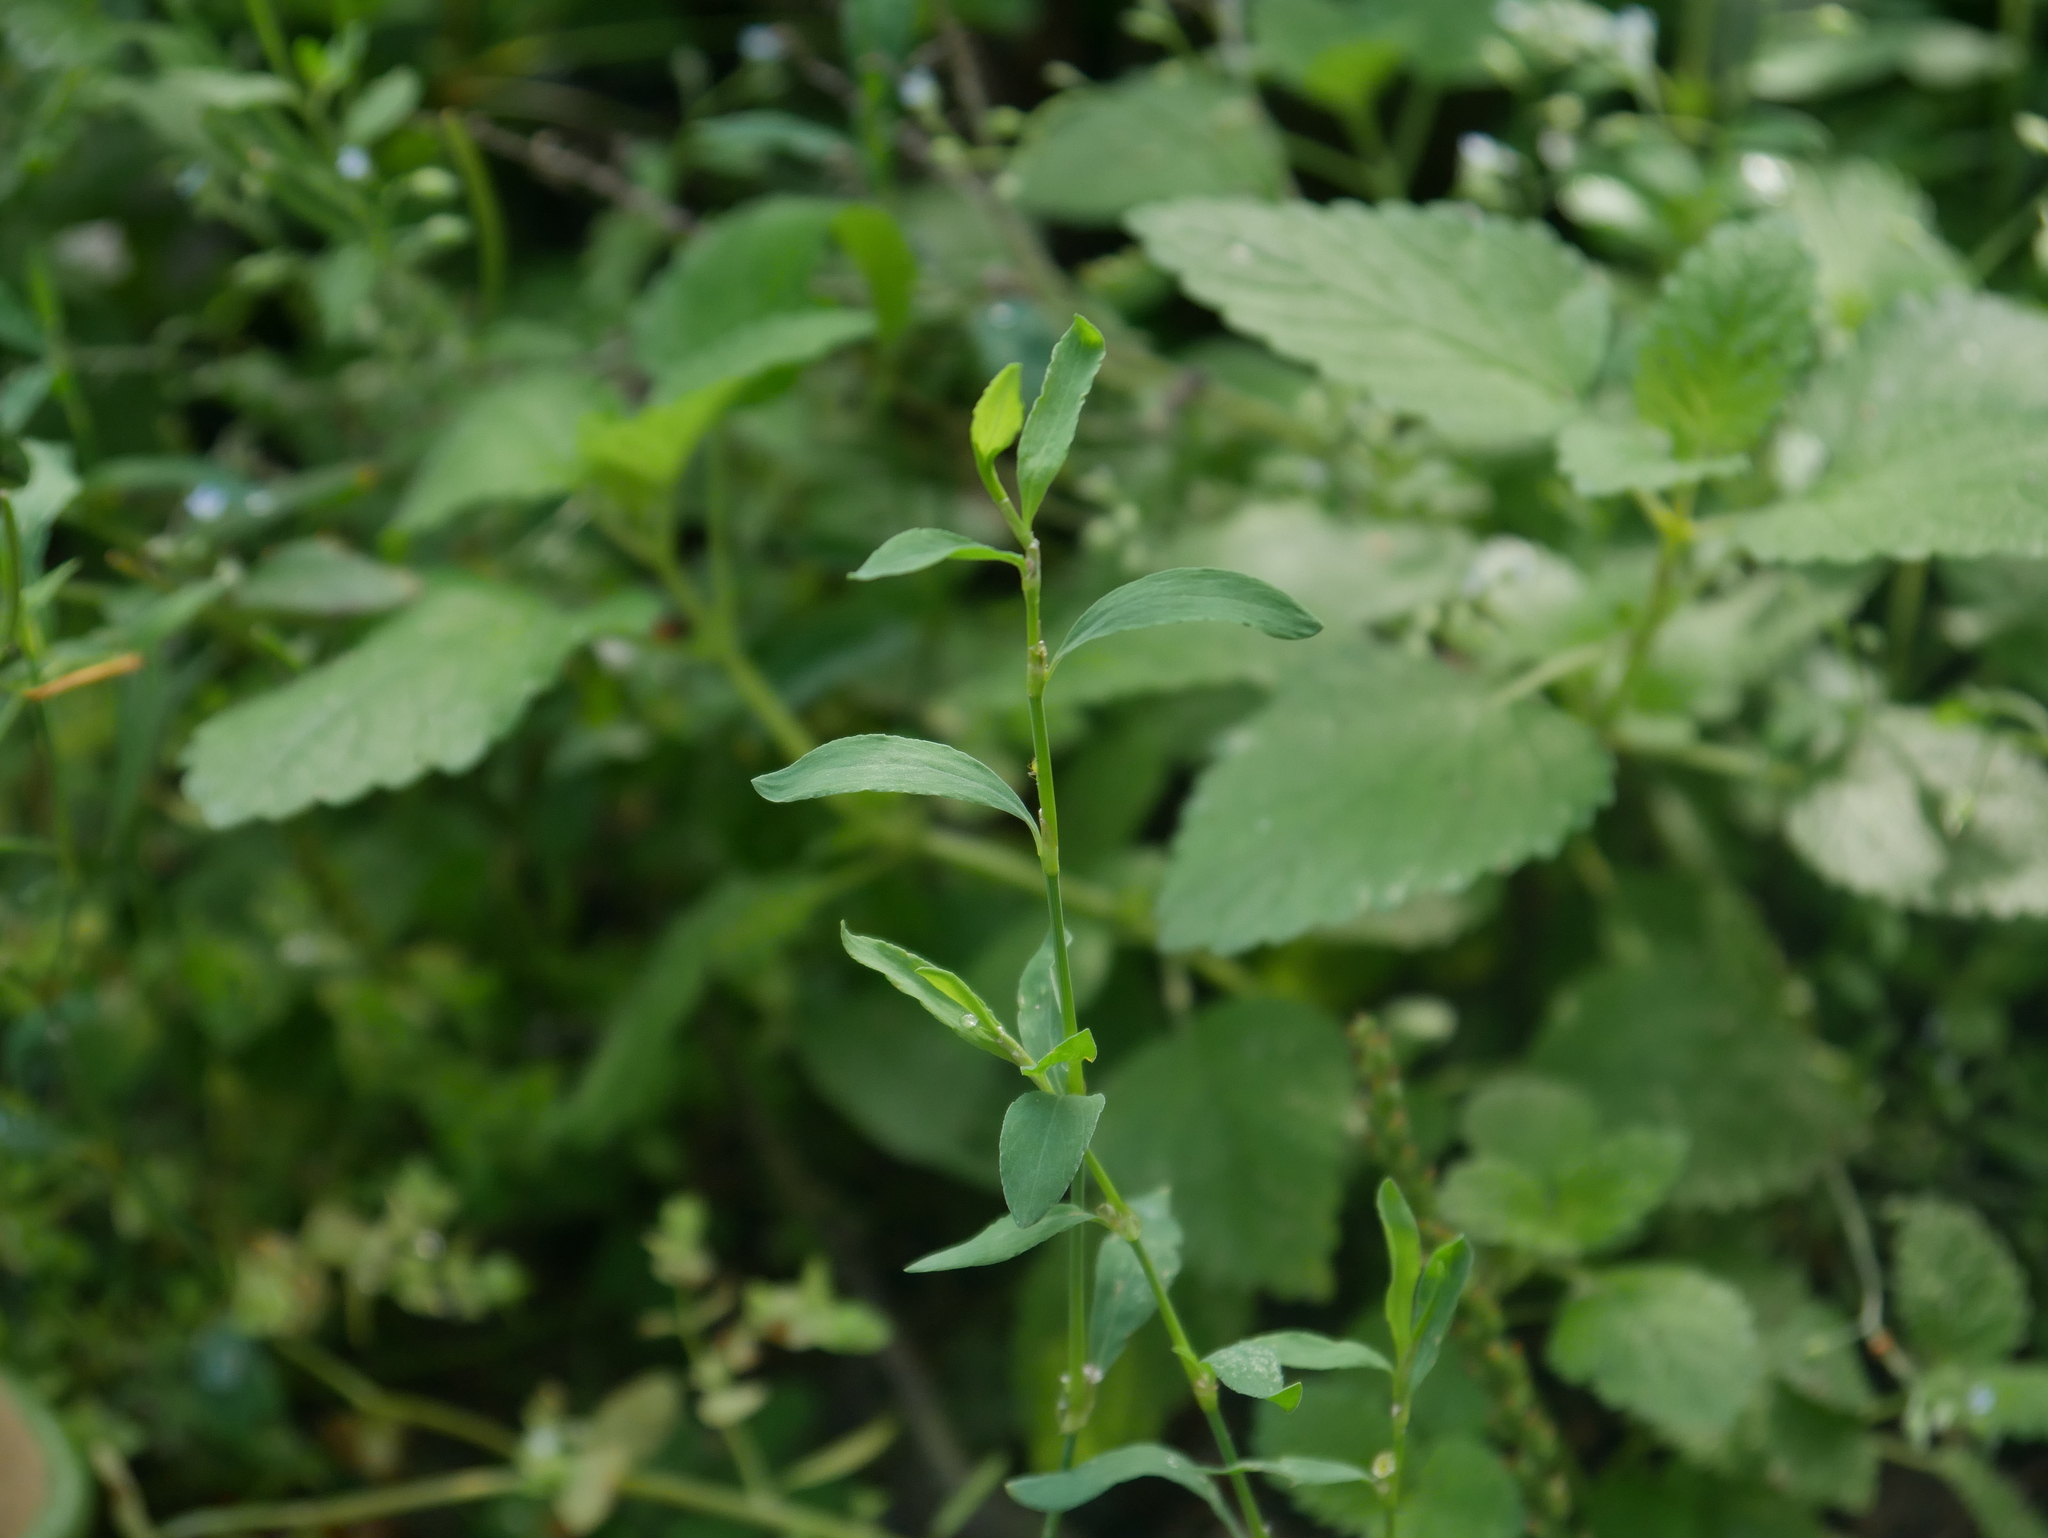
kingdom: Plantae
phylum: Tracheophyta
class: Magnoliopsida
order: Caryophyllales
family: Polygonaceae
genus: Polygonum
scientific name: Polygonum aviculare
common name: Prostrate knotweed
